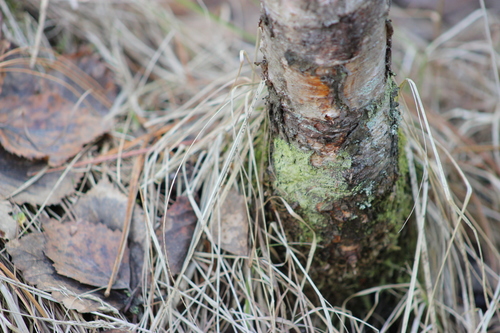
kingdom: Fungi
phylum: Ascomycota
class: Lecanoromycetes
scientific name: Lecanoromycetes
